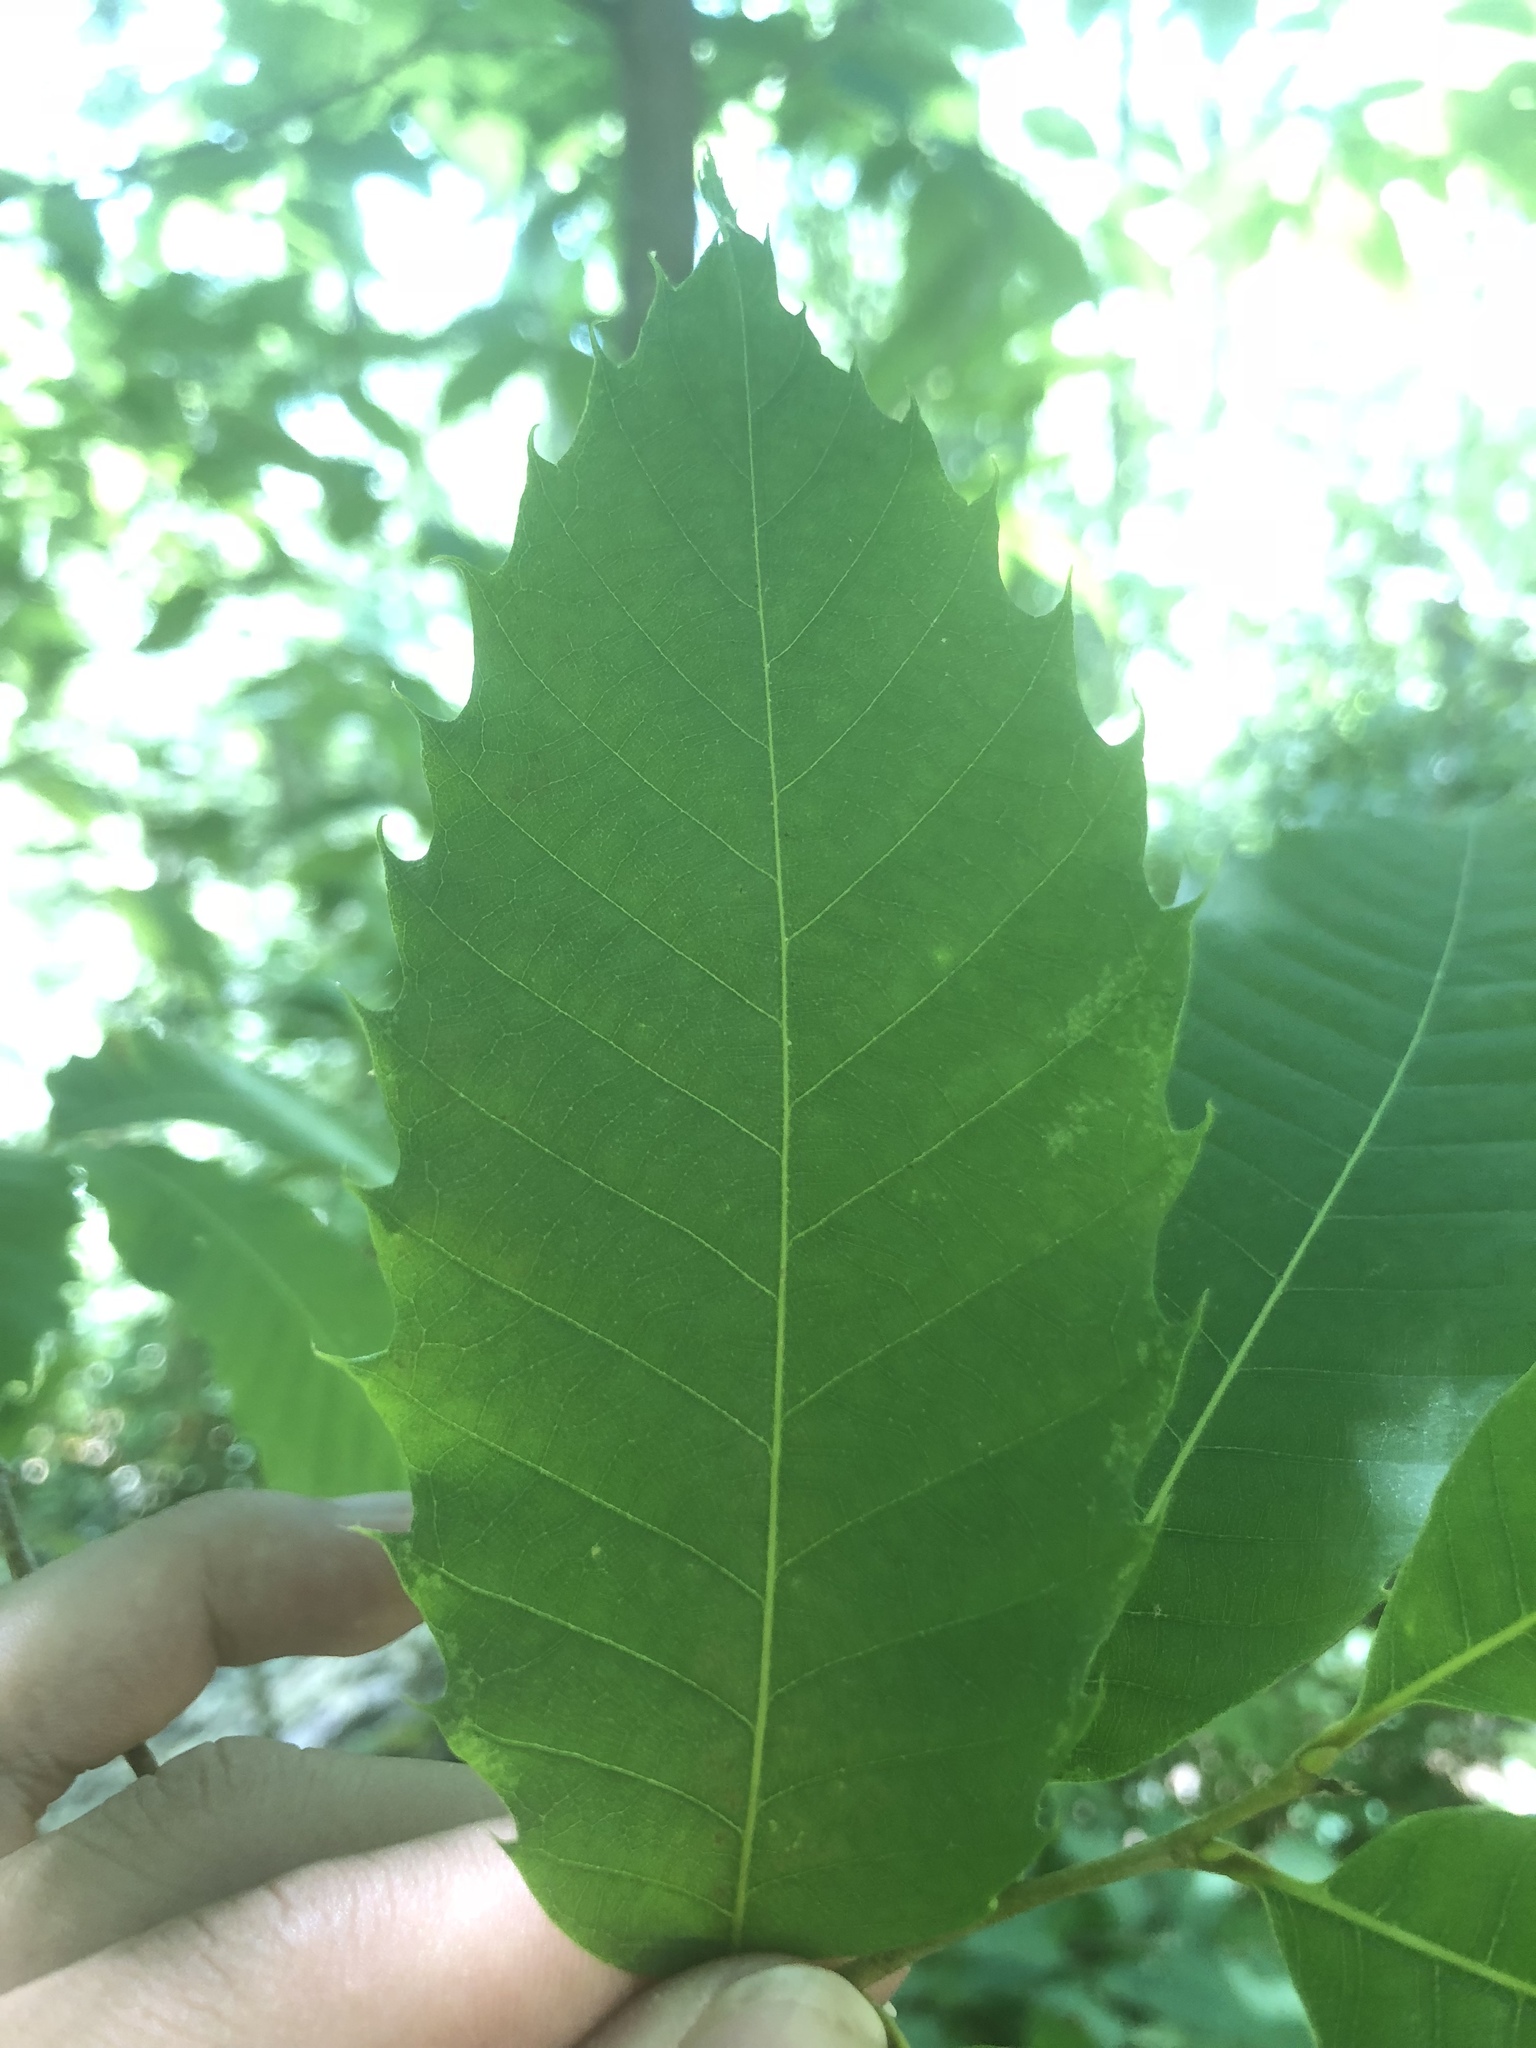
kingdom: Plantae
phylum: Tracheophyta
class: Magnoliopsida
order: Fagales
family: Fagaceae
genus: Fagus
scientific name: Fagus grandifolia
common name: American beech
